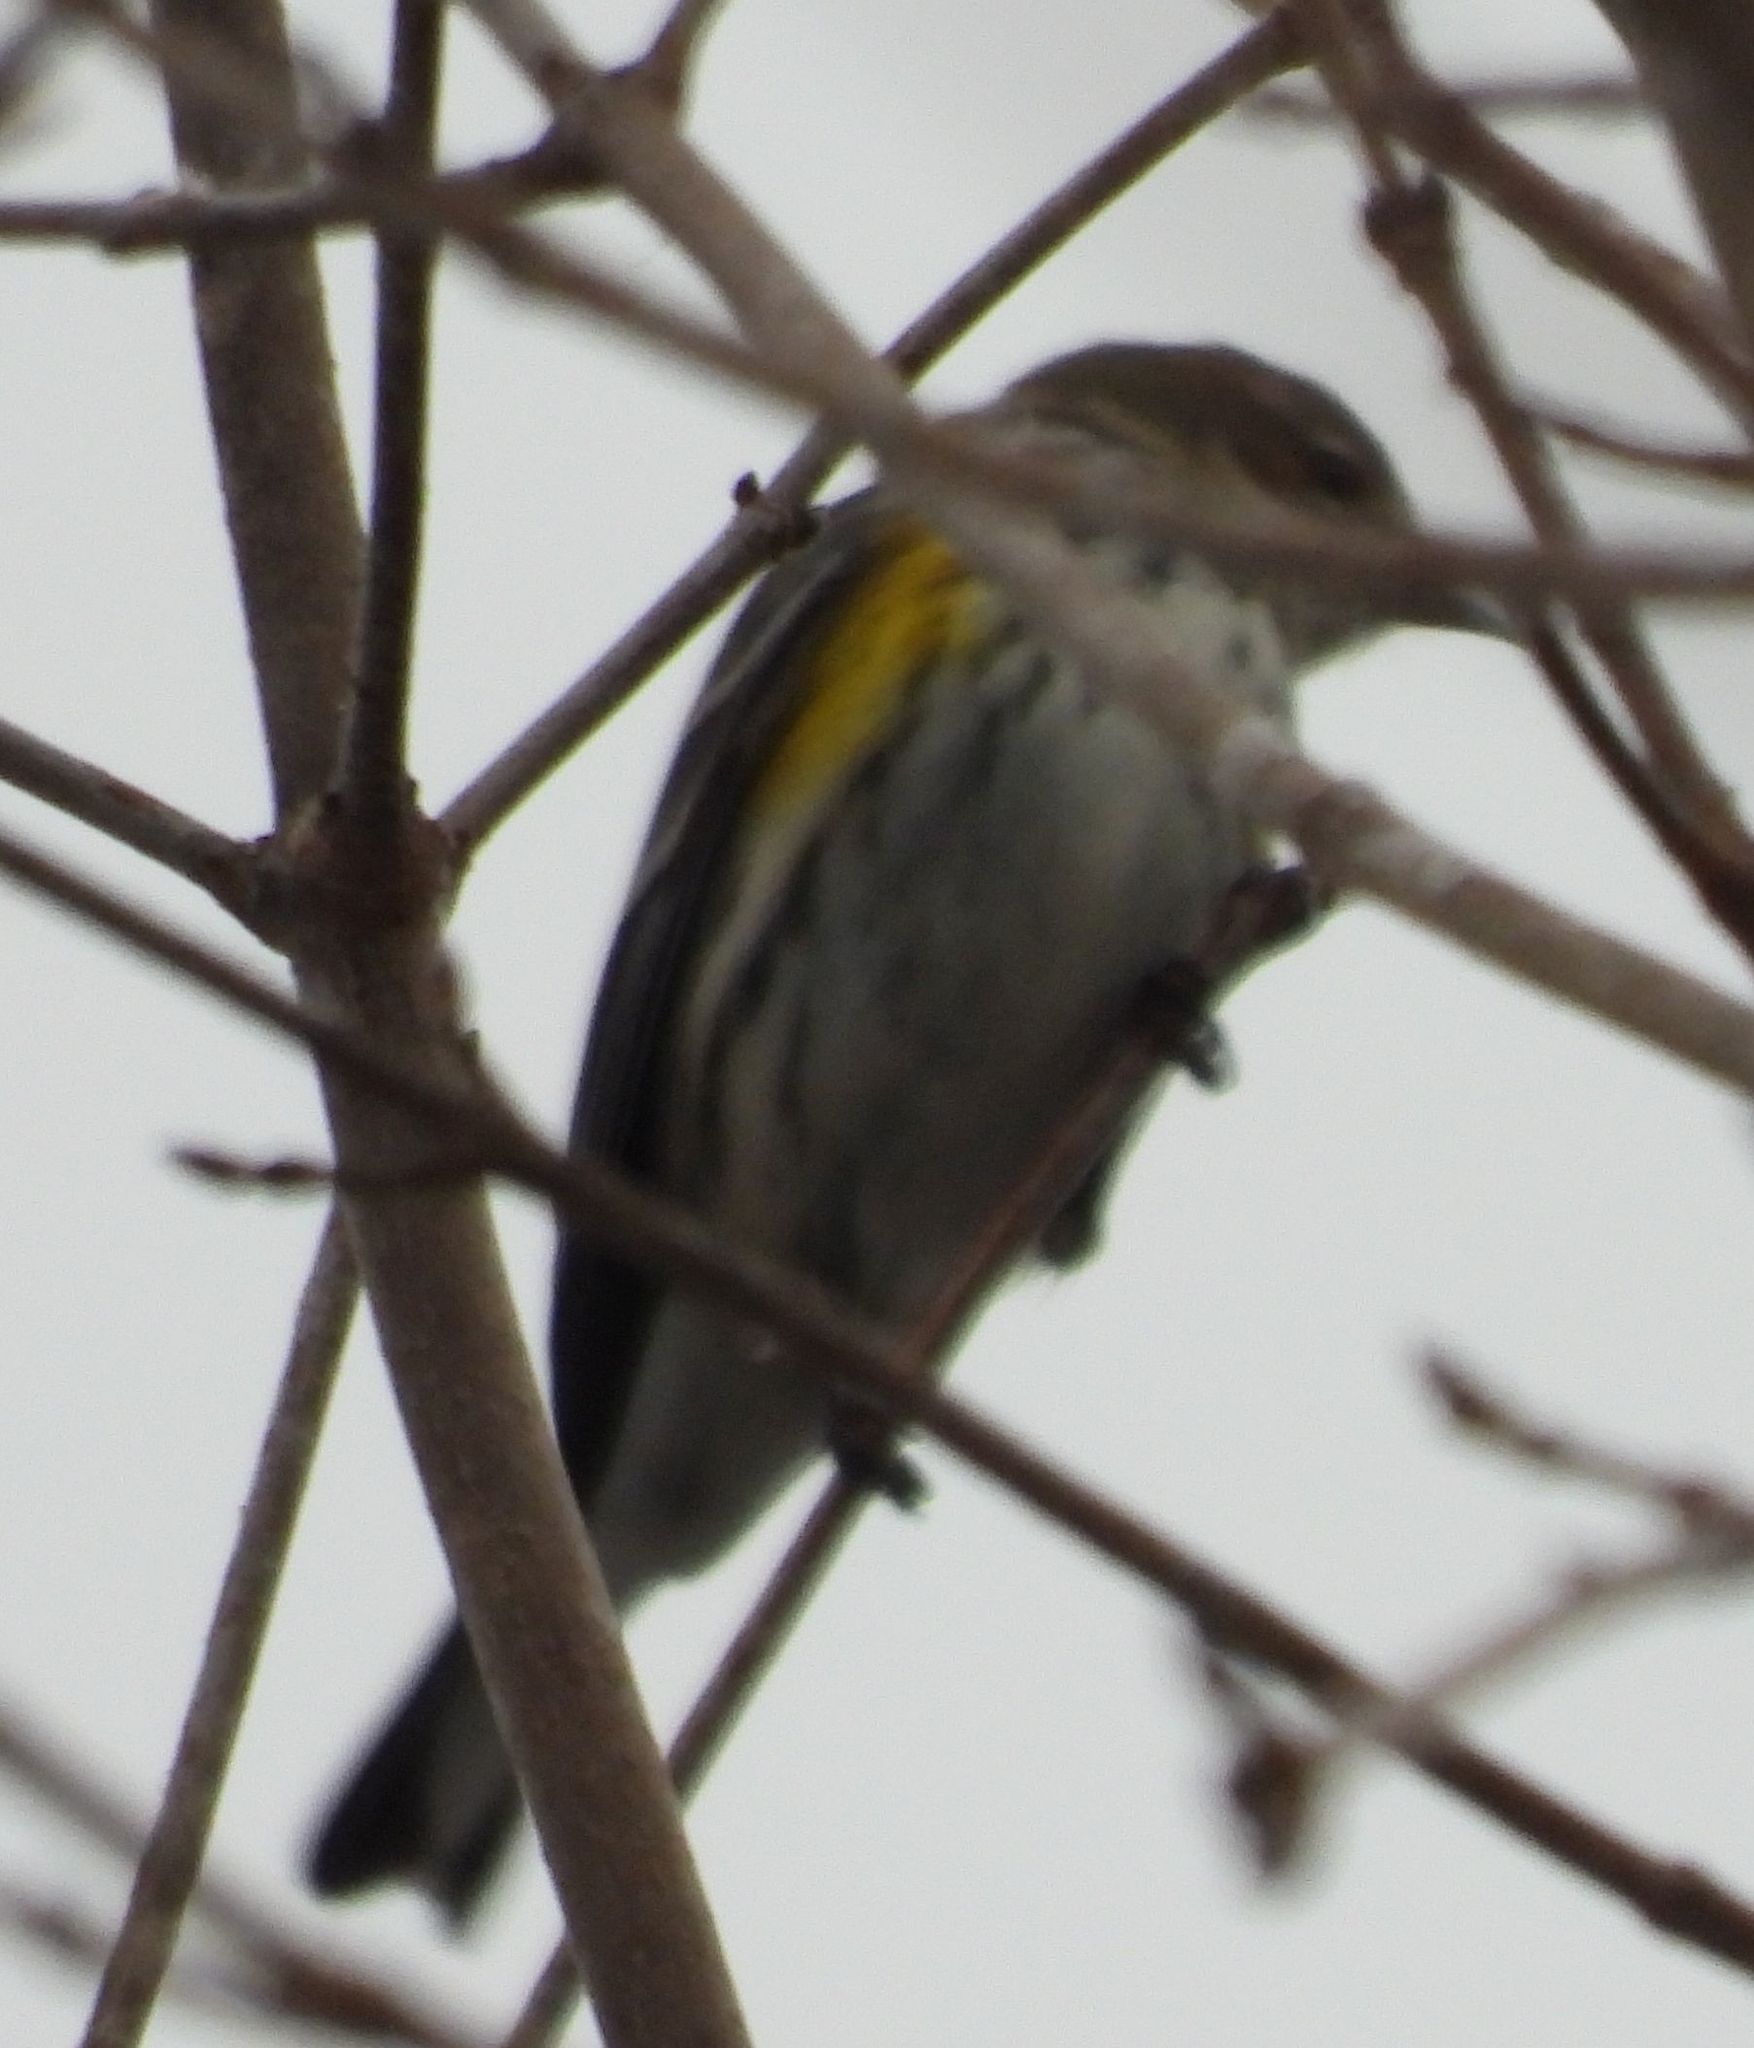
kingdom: Animalia
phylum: Chordata
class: Aves
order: Passeriformes
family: Parulidae
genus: Setophaga
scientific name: Setophaga coronata
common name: Myrtle warbler
